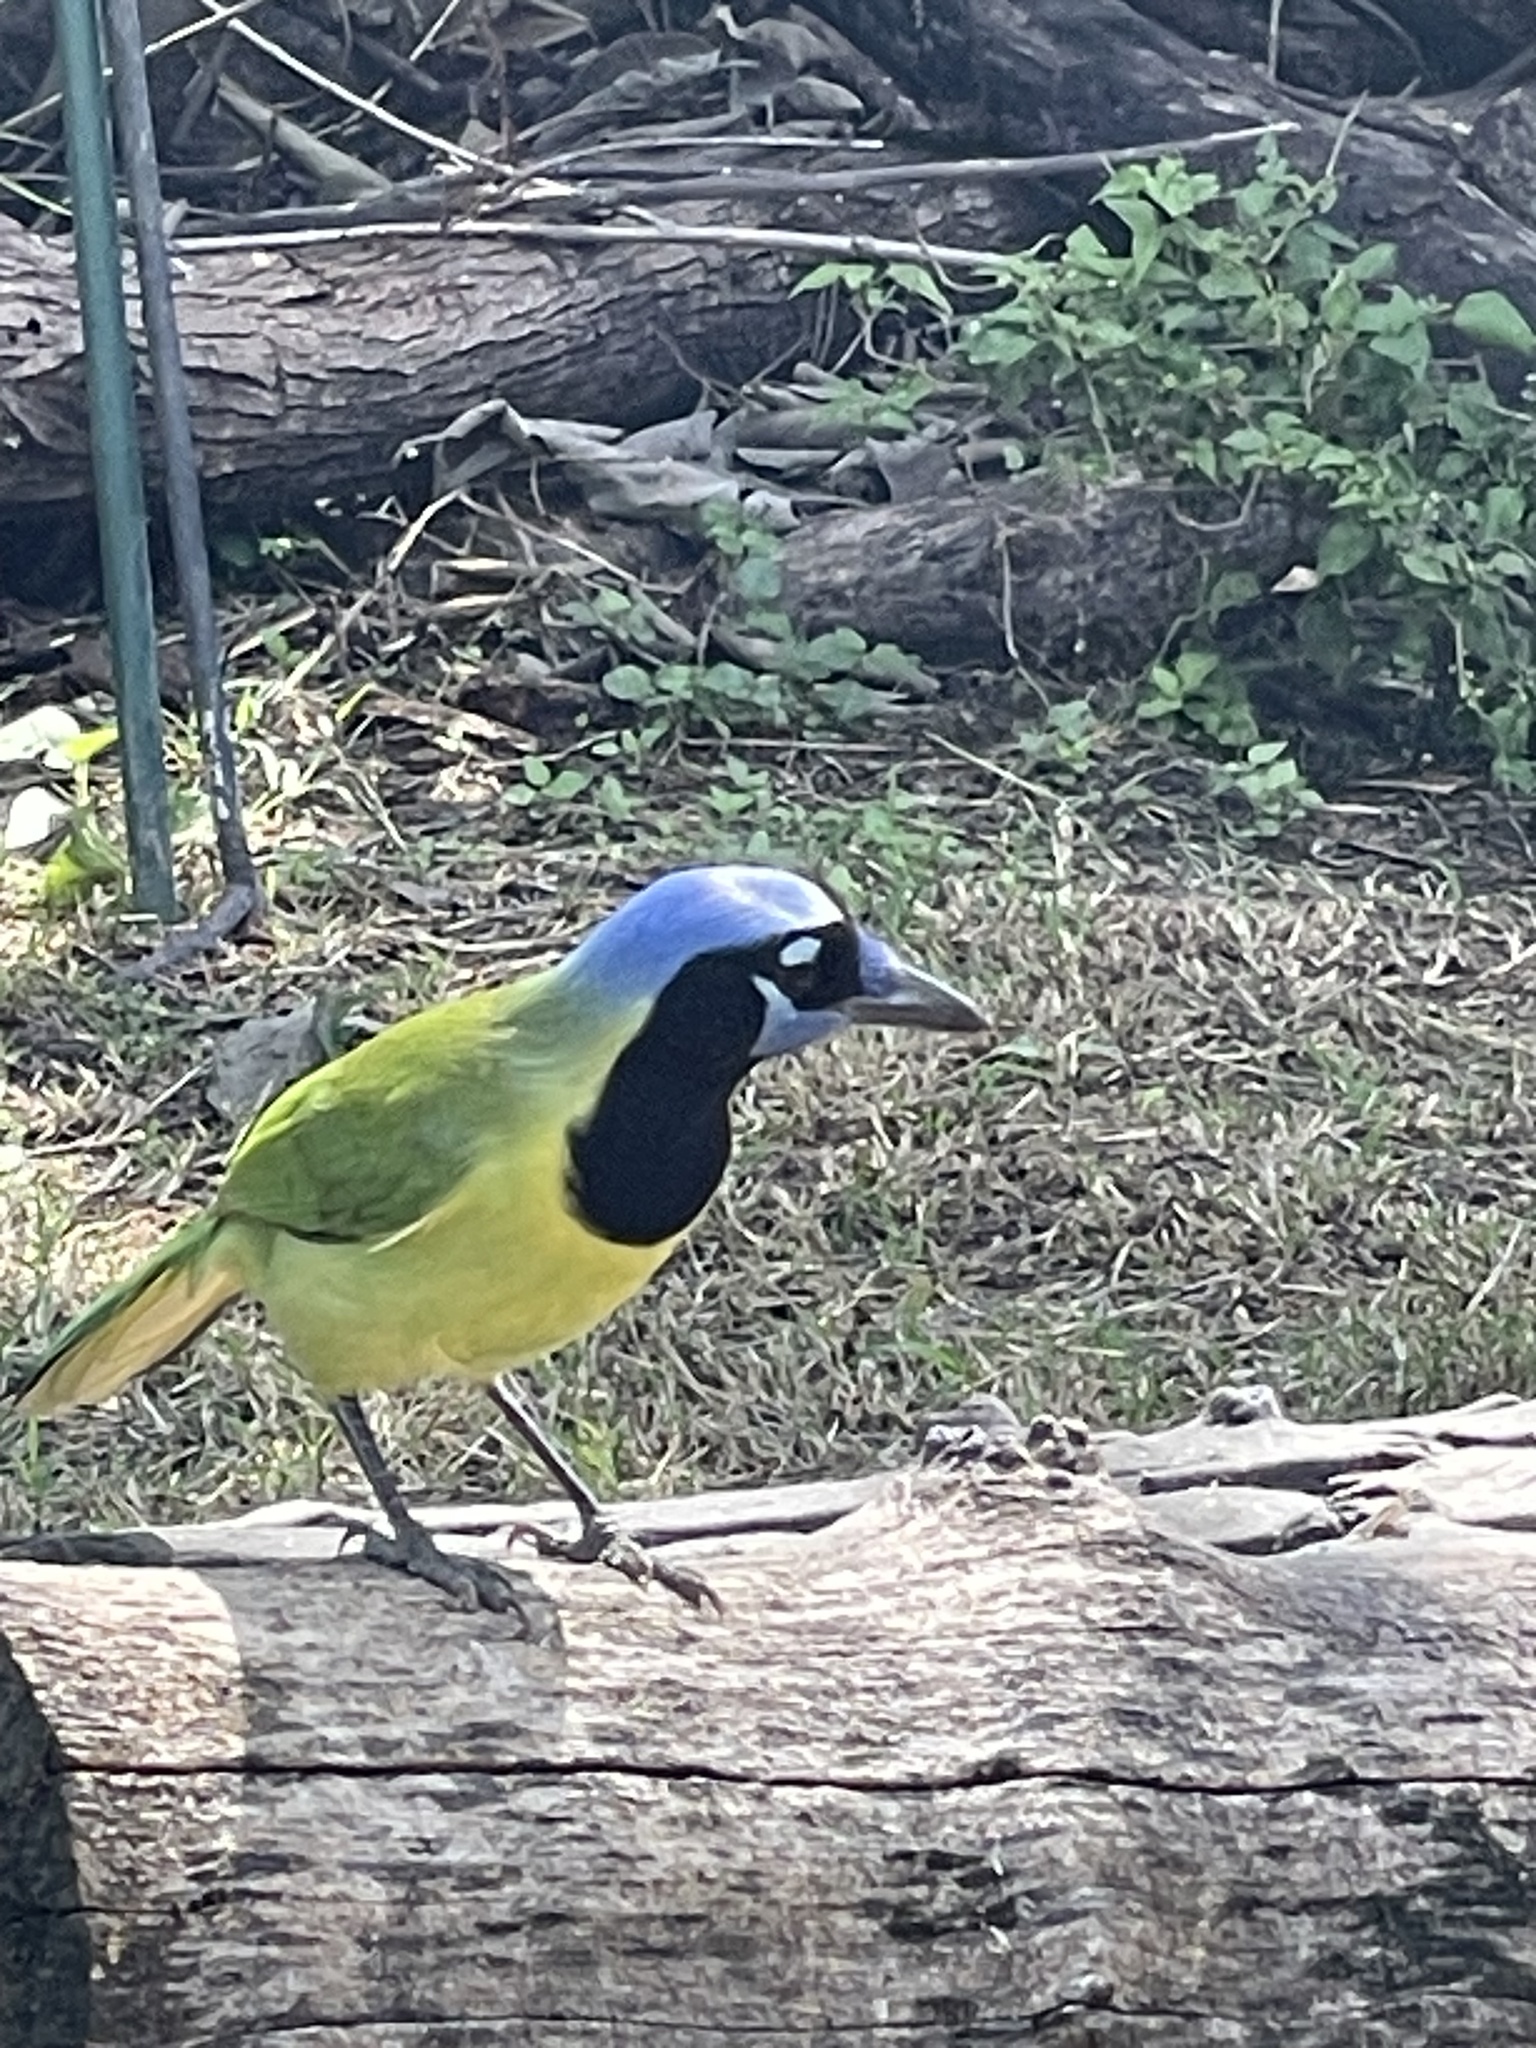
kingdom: Animalia
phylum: Chordata
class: Aves
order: Passeriformes
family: Corvidae
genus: Cyanocorax
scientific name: Cyanocorax yncas
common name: Green jay
